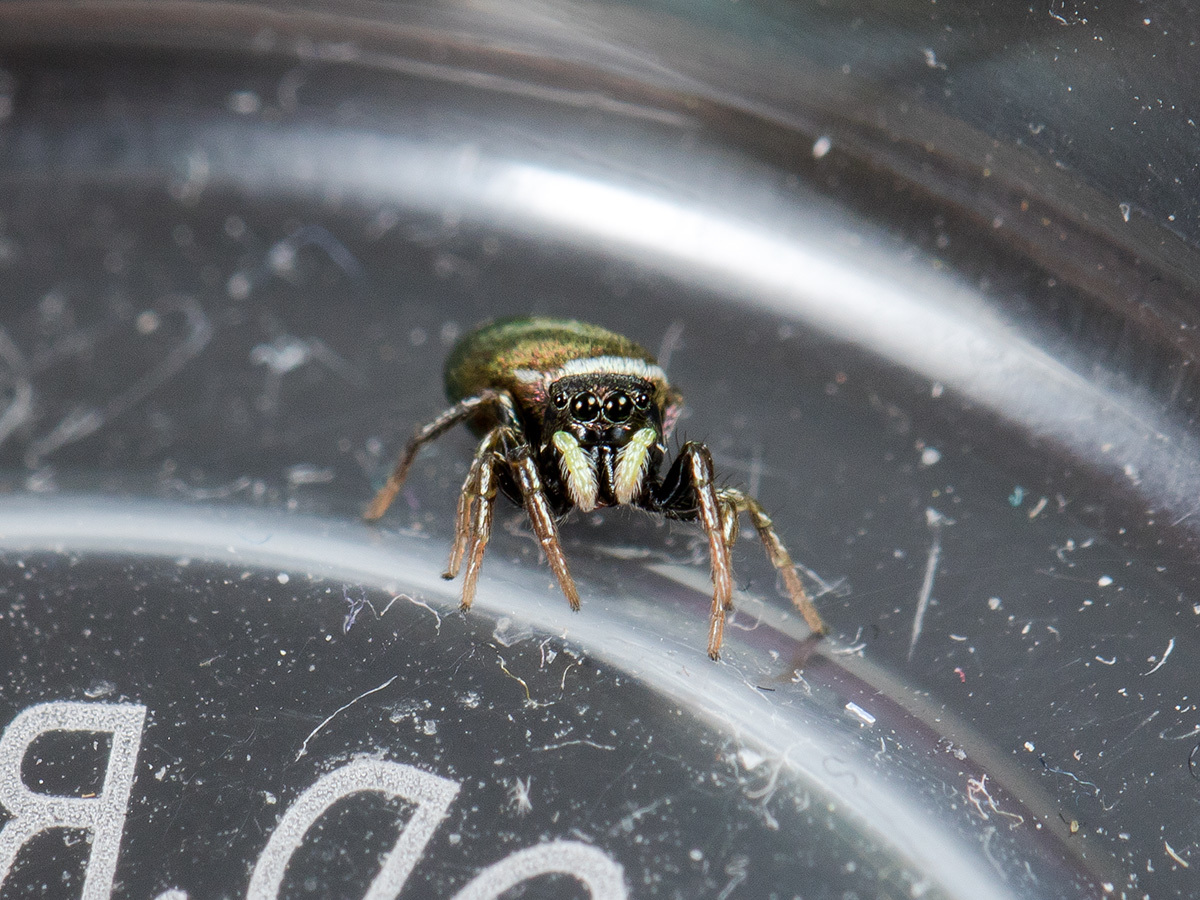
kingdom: Animalia
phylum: Arthropoda
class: Arachnida
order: Araneae
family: Salticidae
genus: Heliophanus
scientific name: Heliophanus chovdensis
